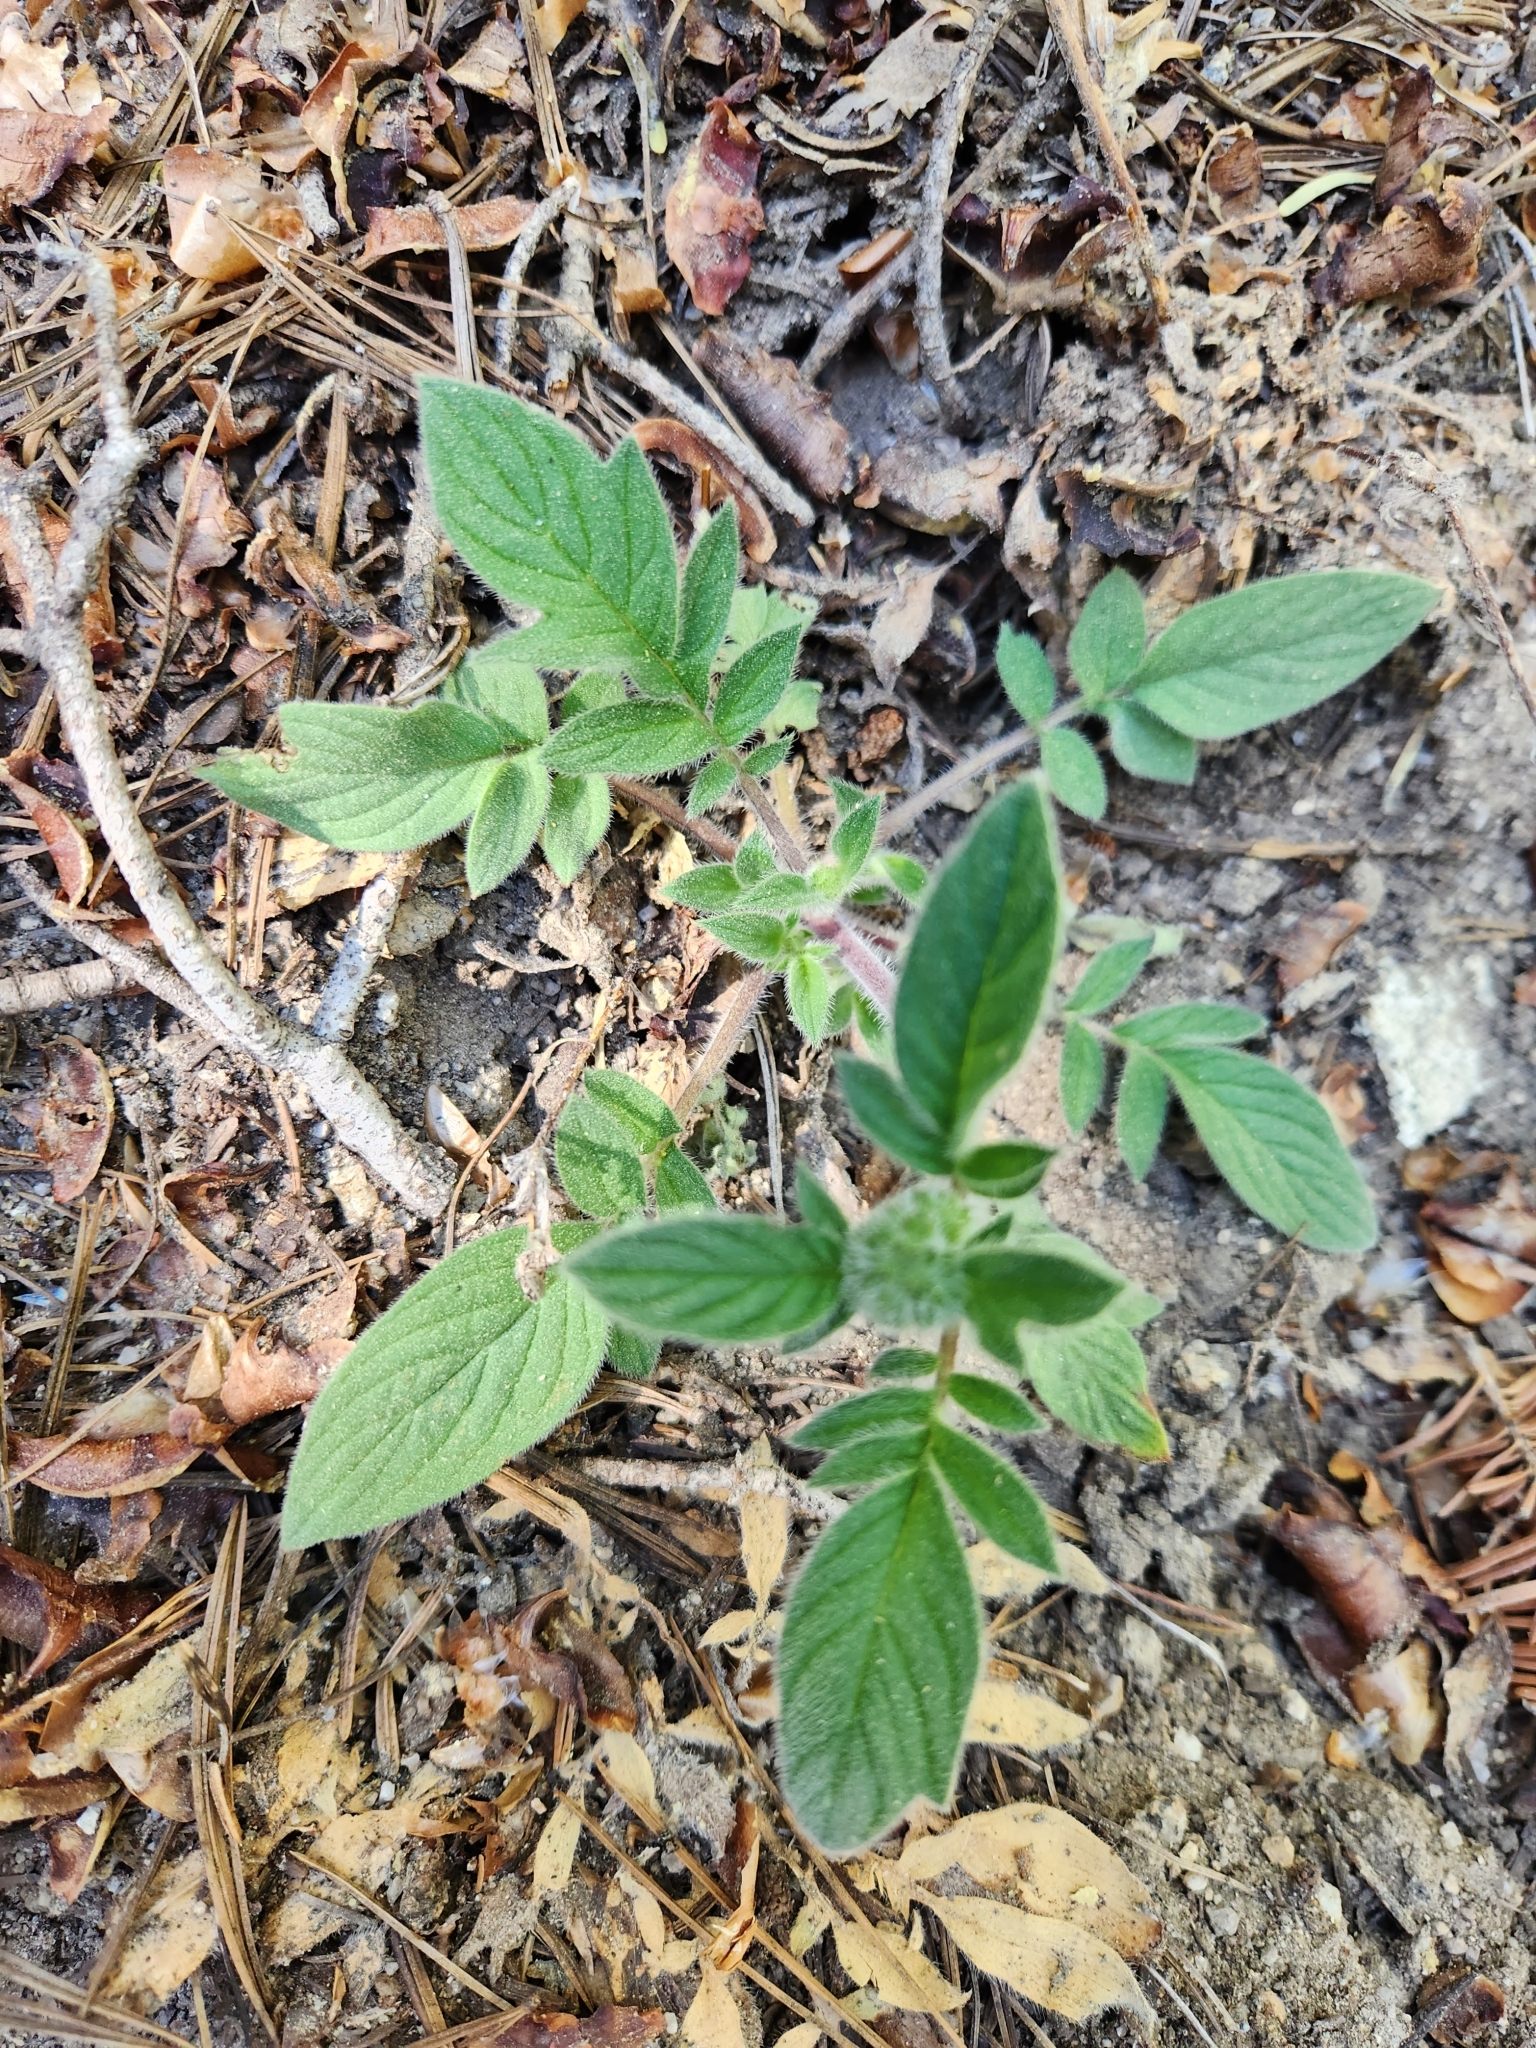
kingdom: Plantae
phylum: Tracheophyta
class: Magnoliopsida
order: Boraginales
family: Hydrophyllaceae
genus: Phacelia
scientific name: Phacelia mutabilis
